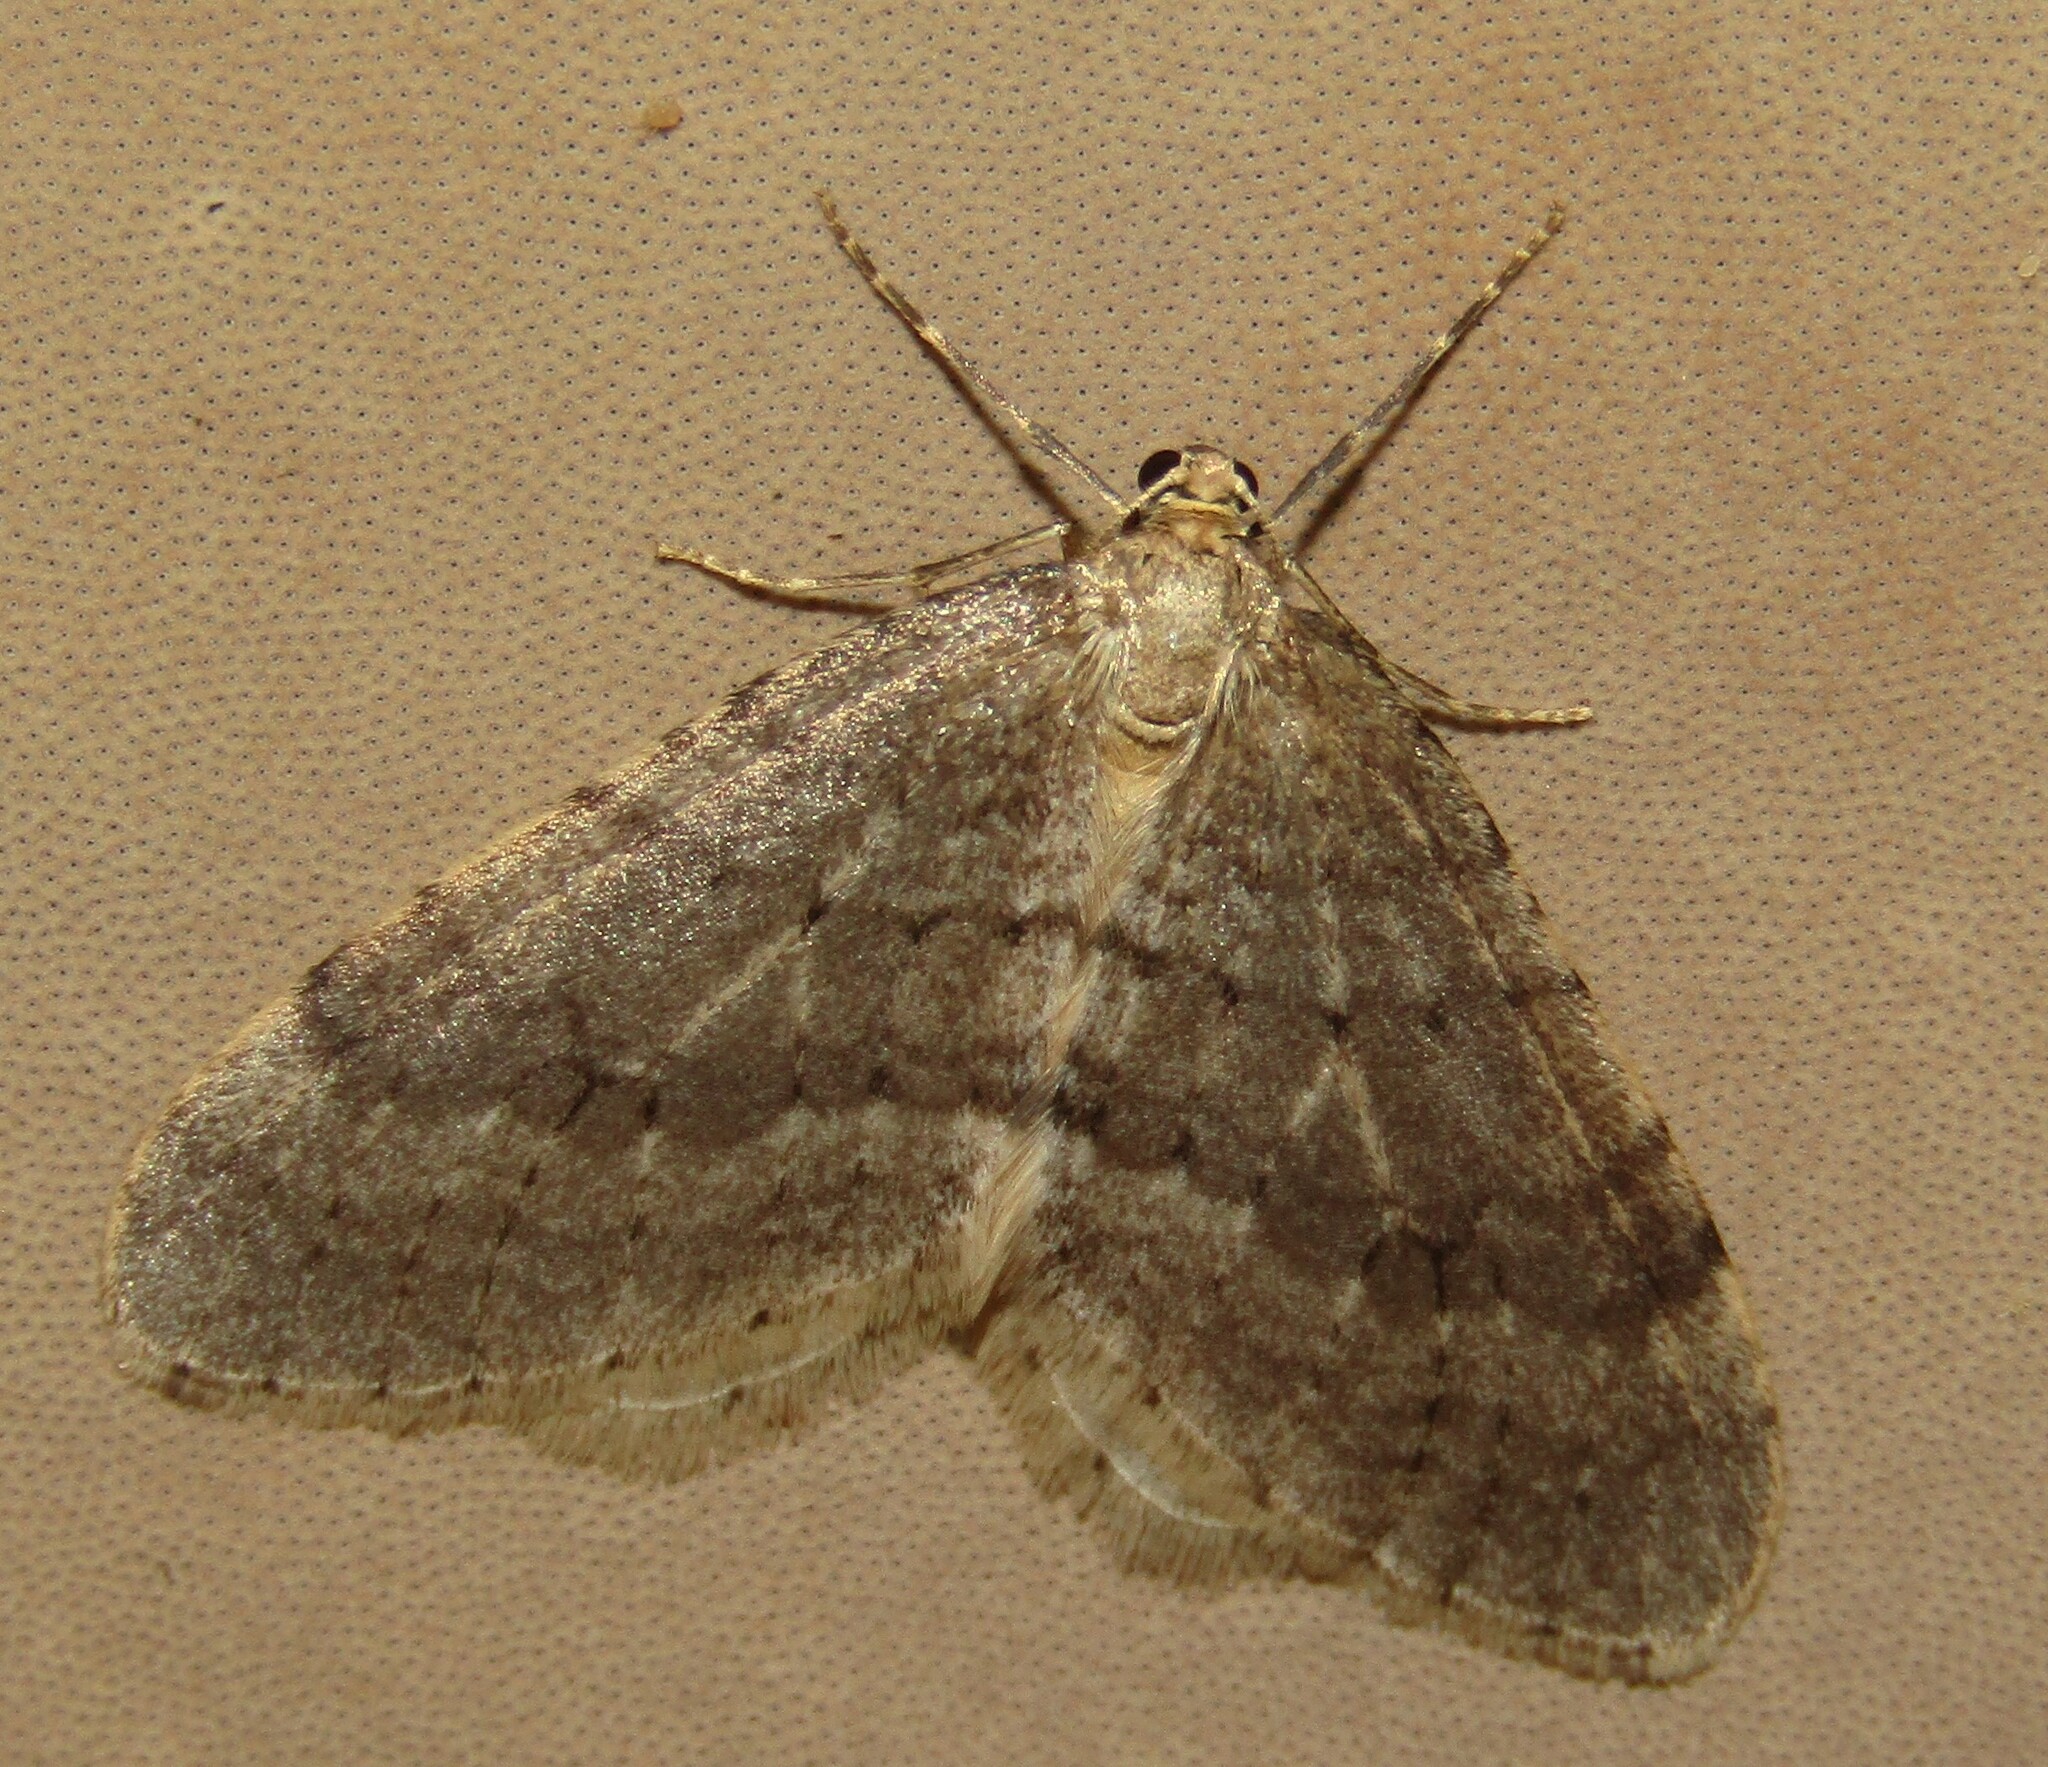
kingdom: Animalia
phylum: Arthropoda
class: Insecta
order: Lepidoptera
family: Geometridae
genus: Operophtera
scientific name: Operophtera brumata
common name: Winter moth
